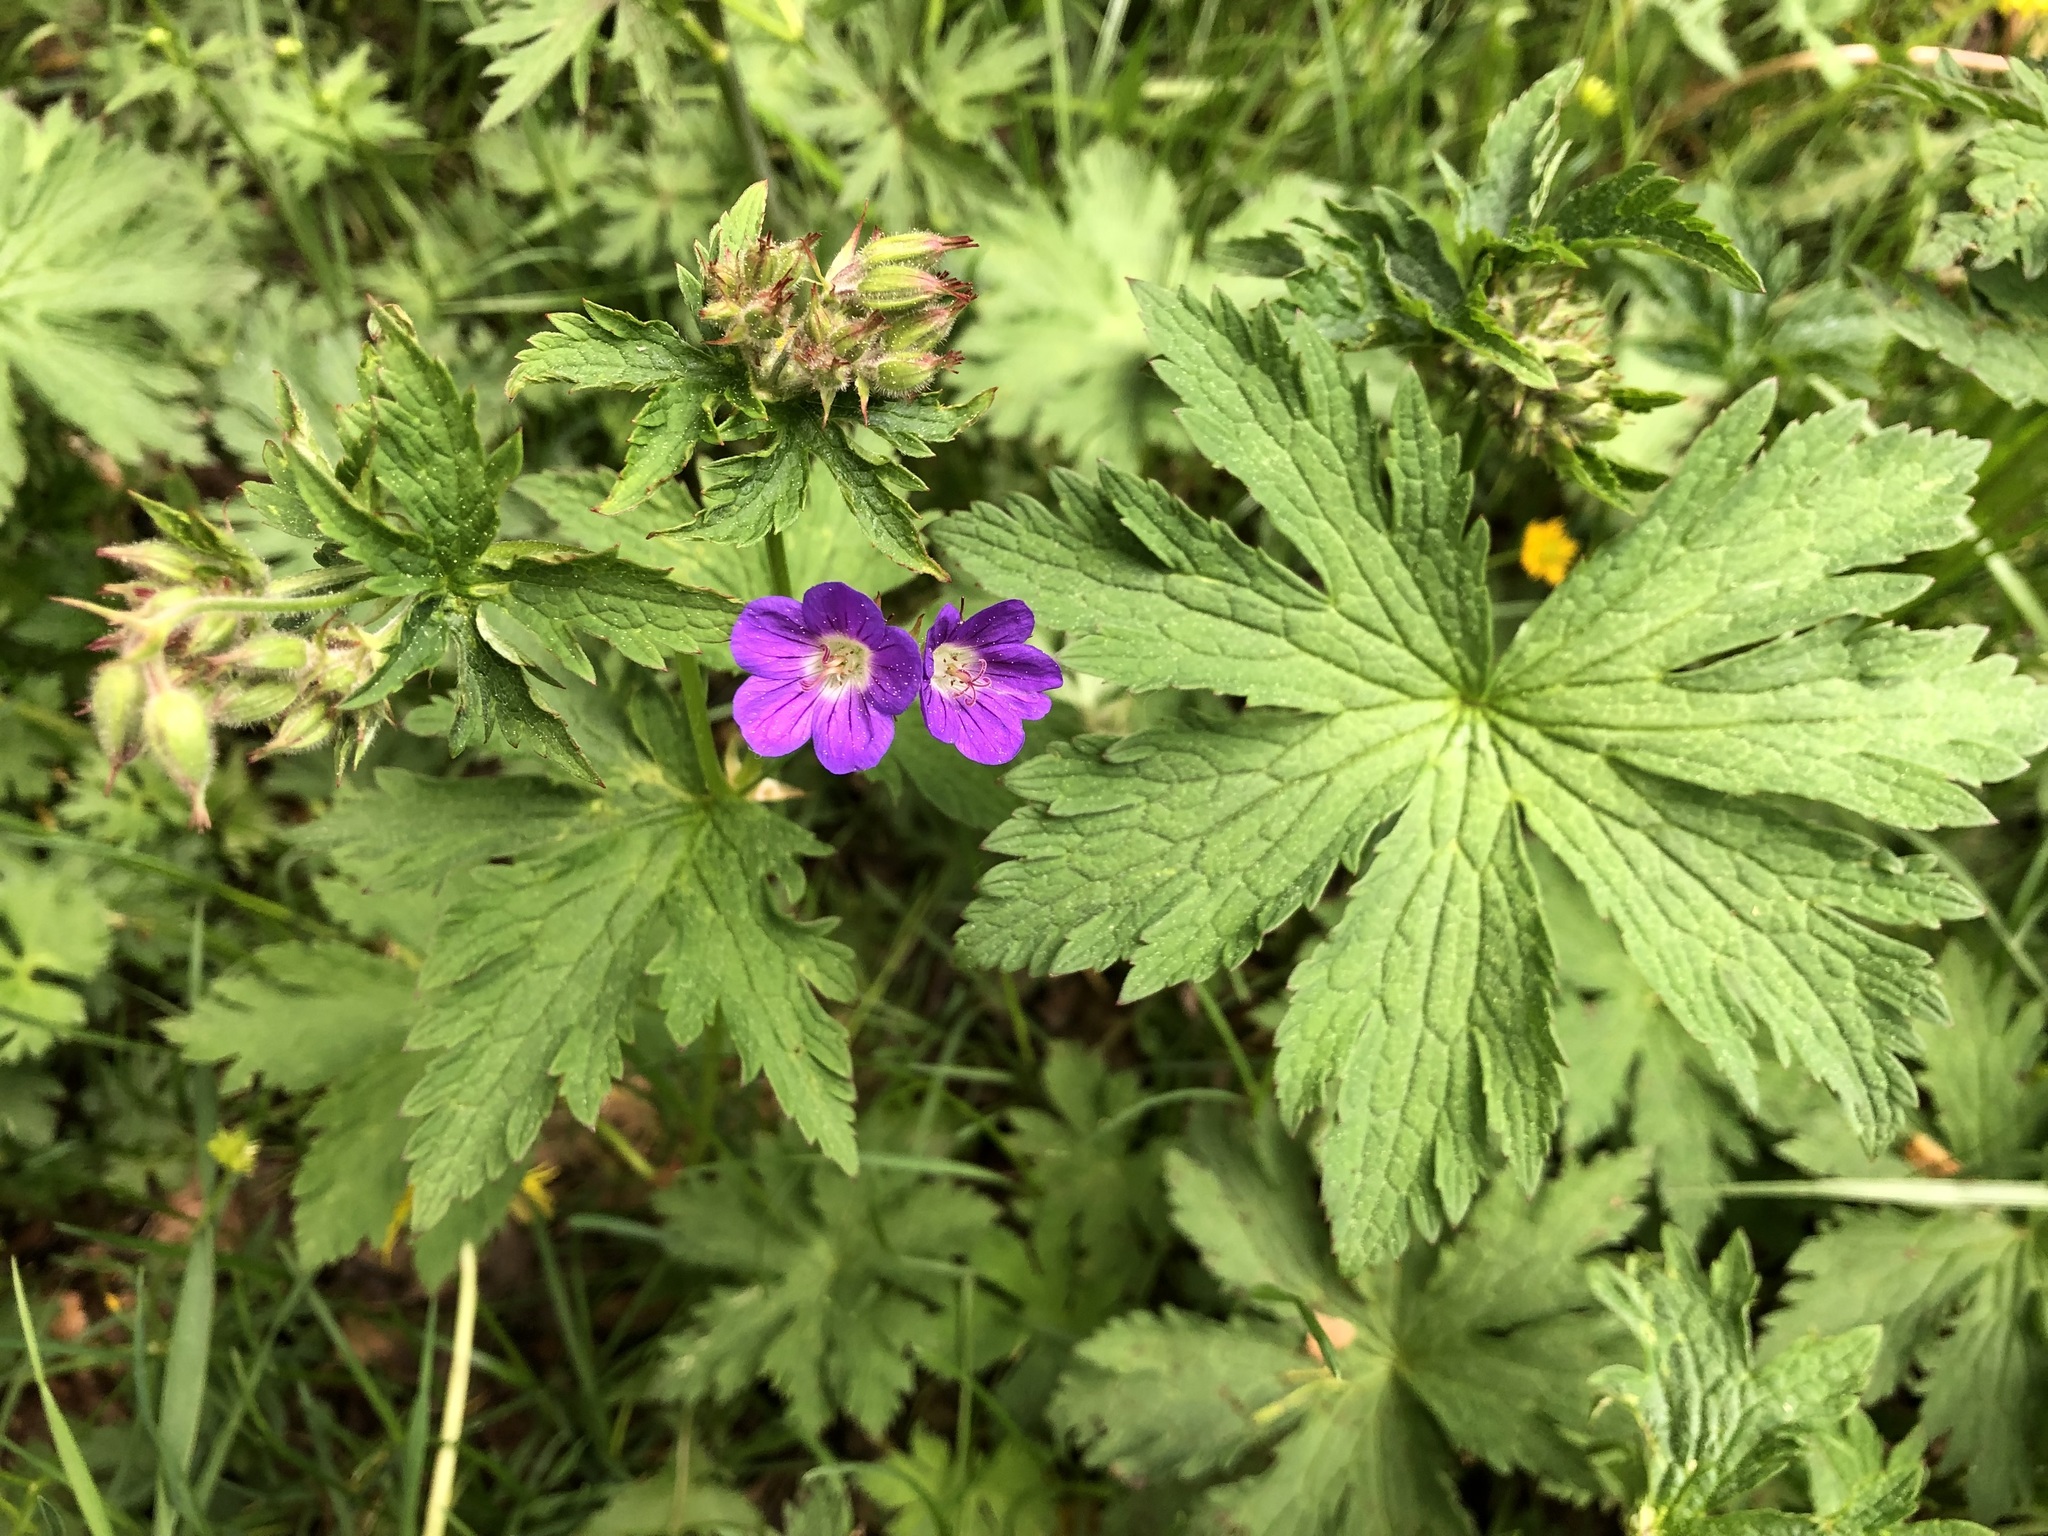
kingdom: Plantae
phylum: Tracheophyta
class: Magnoliopsida
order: Geraniales
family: Geraniaceae
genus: Geranium
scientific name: Geranium sylvaticum
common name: Wood crane's-bill
